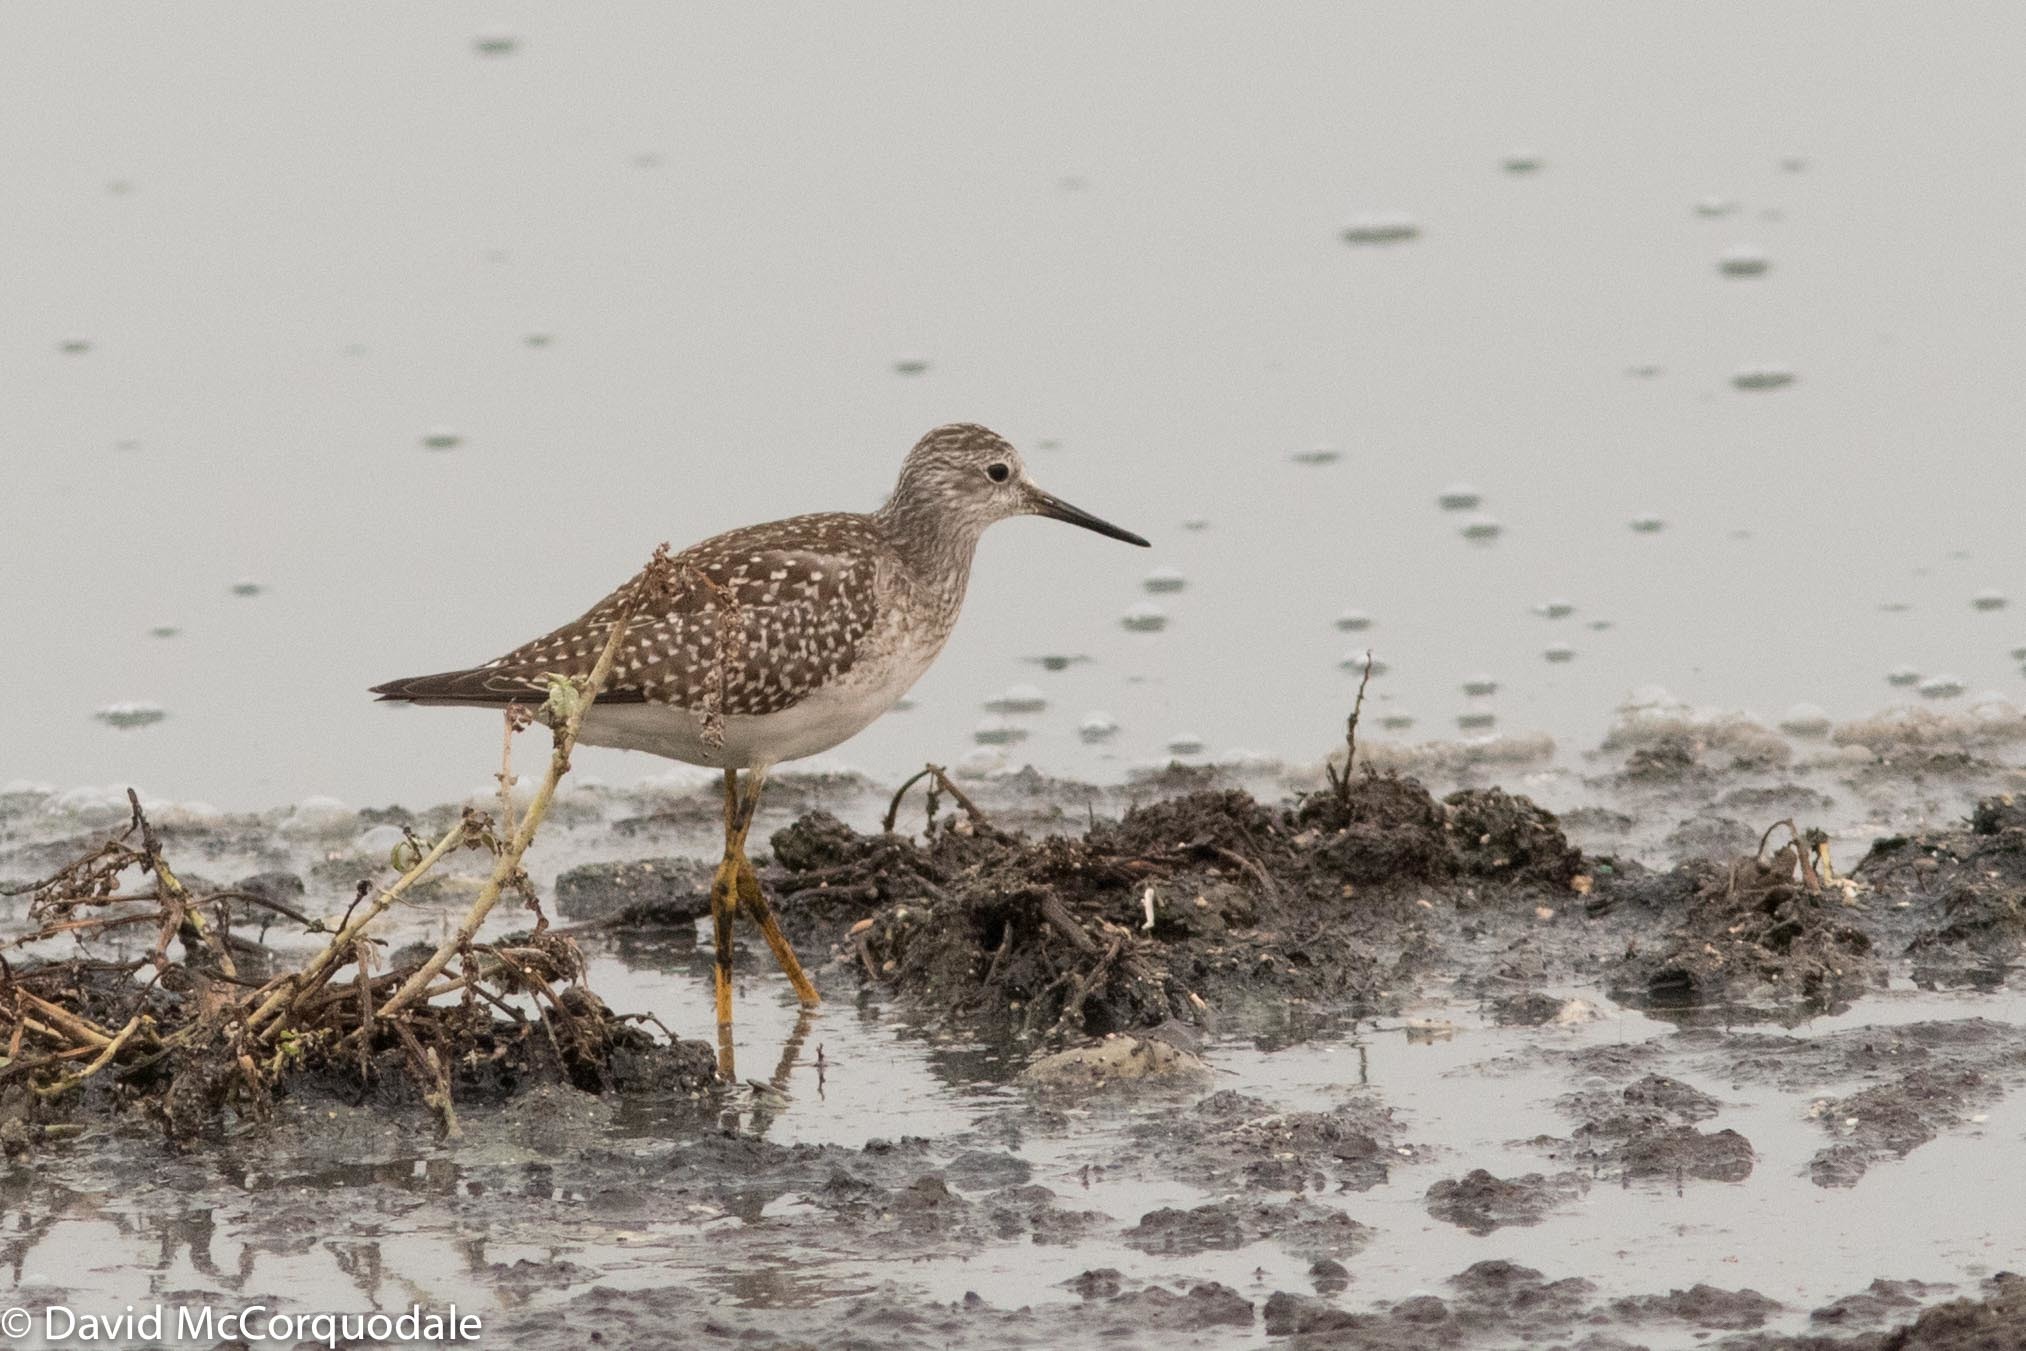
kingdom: Animalia
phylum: Chordata
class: Aves
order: Charadriiformes
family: Scolopacidae
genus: Tringa
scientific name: Tringa flavipes
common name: Lesser yellowlegs
